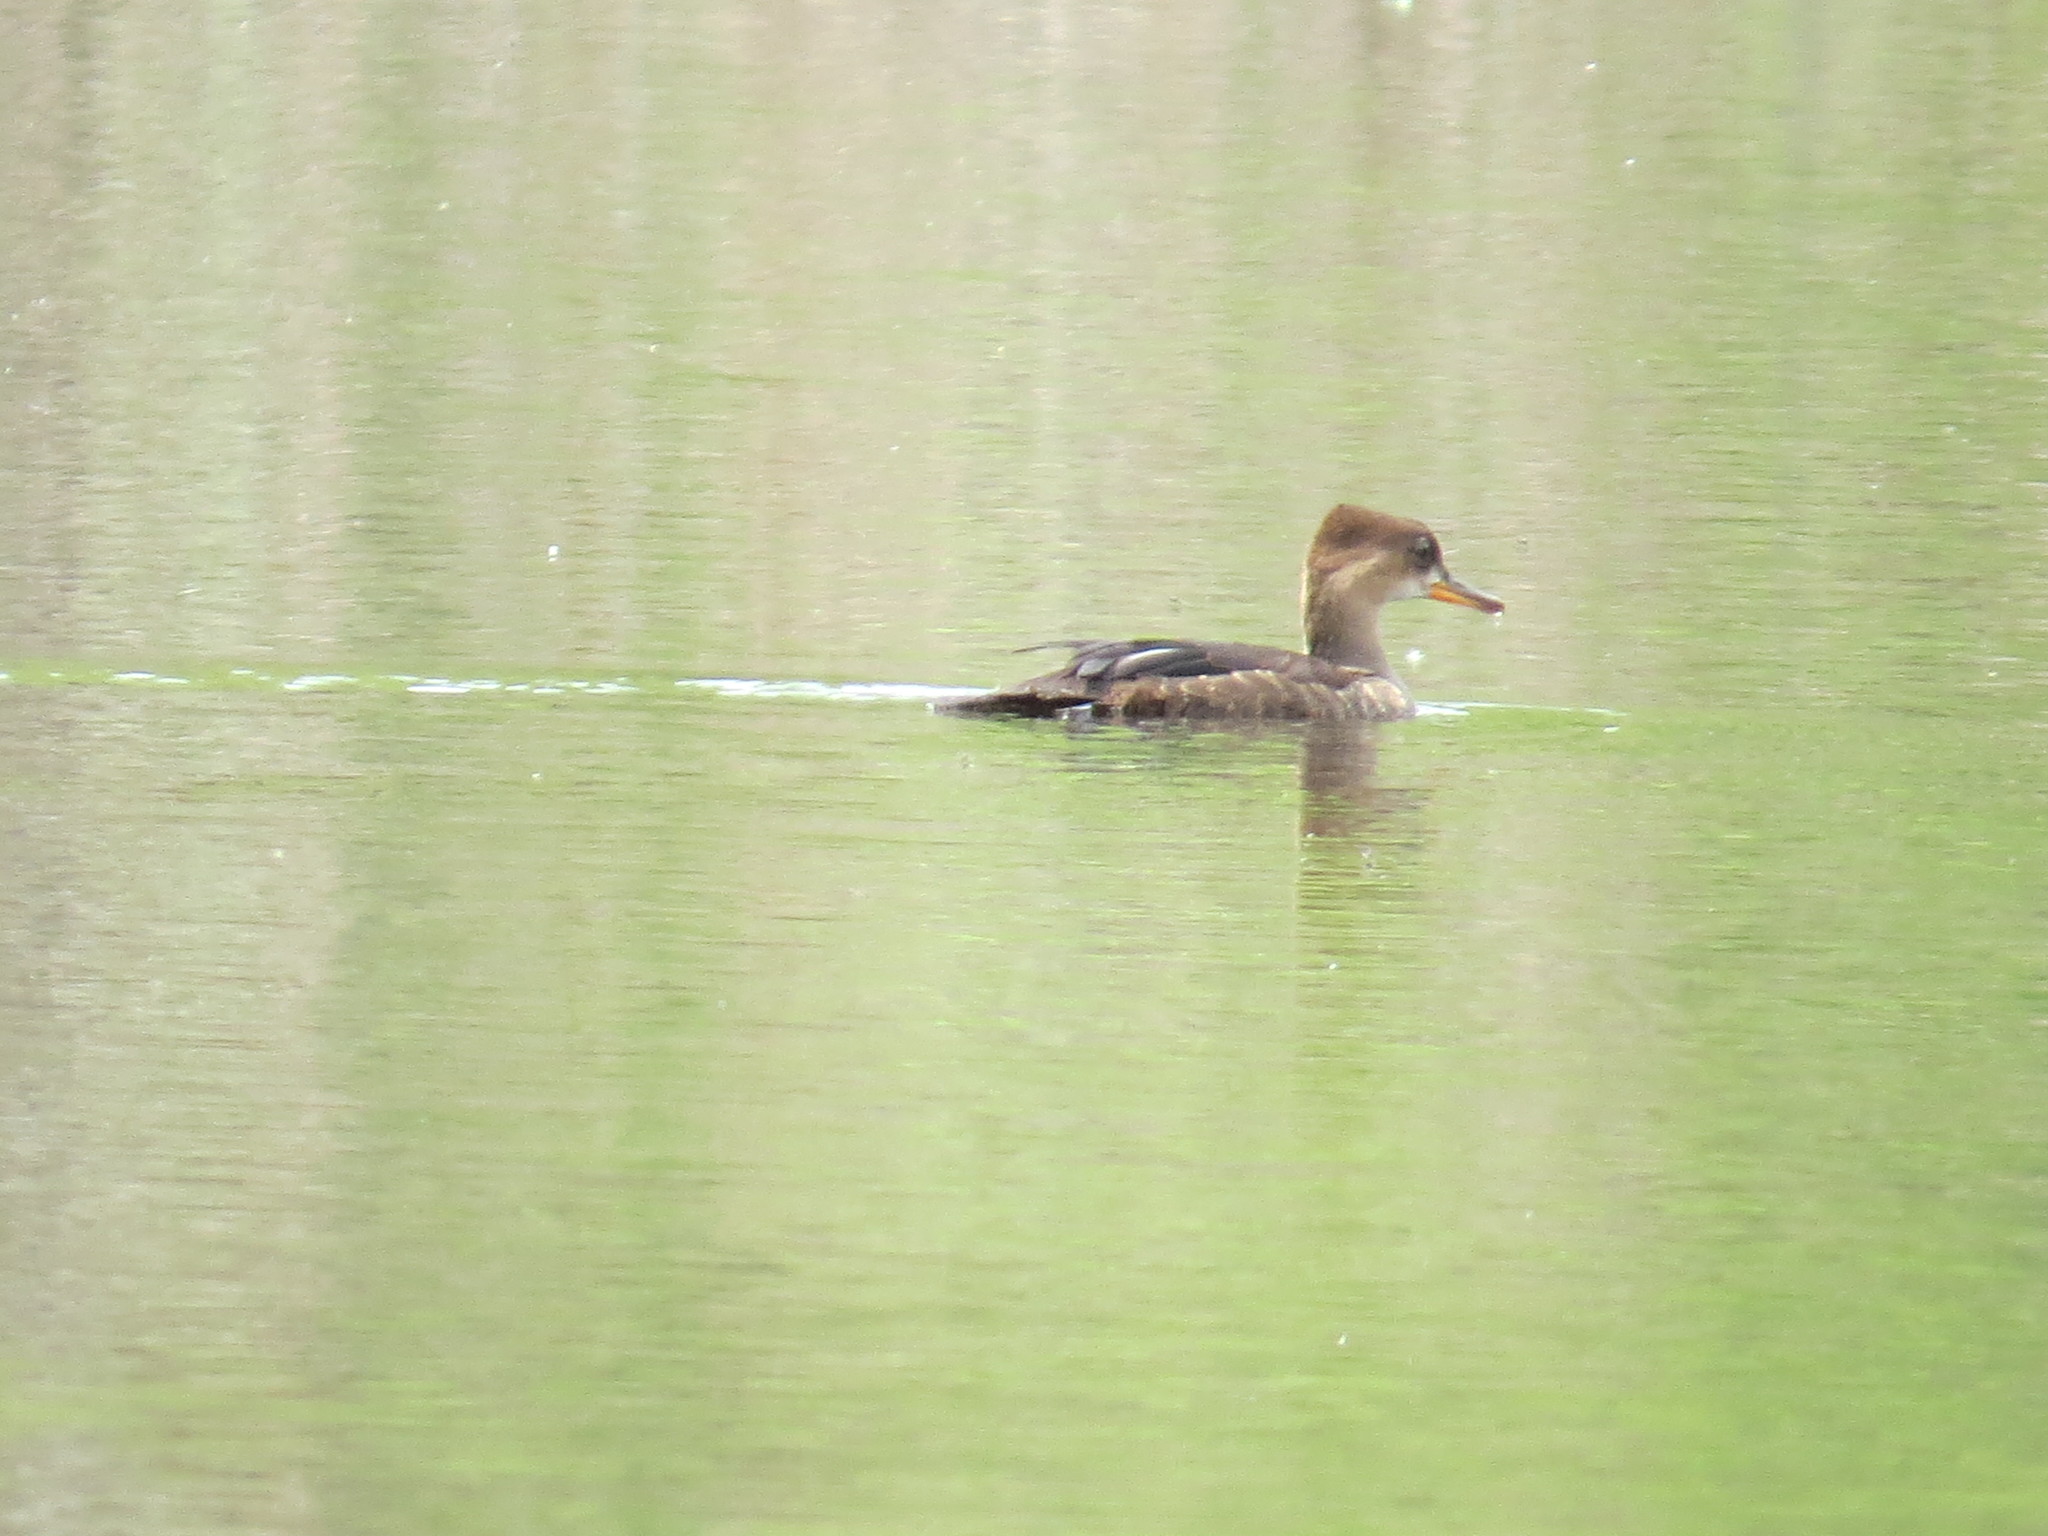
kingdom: Animalia
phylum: Chordata
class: Aves
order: Anseriformes
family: Anatidae
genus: Lophodytes
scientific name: Lophodytes cucullatus
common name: Hooded merganser
